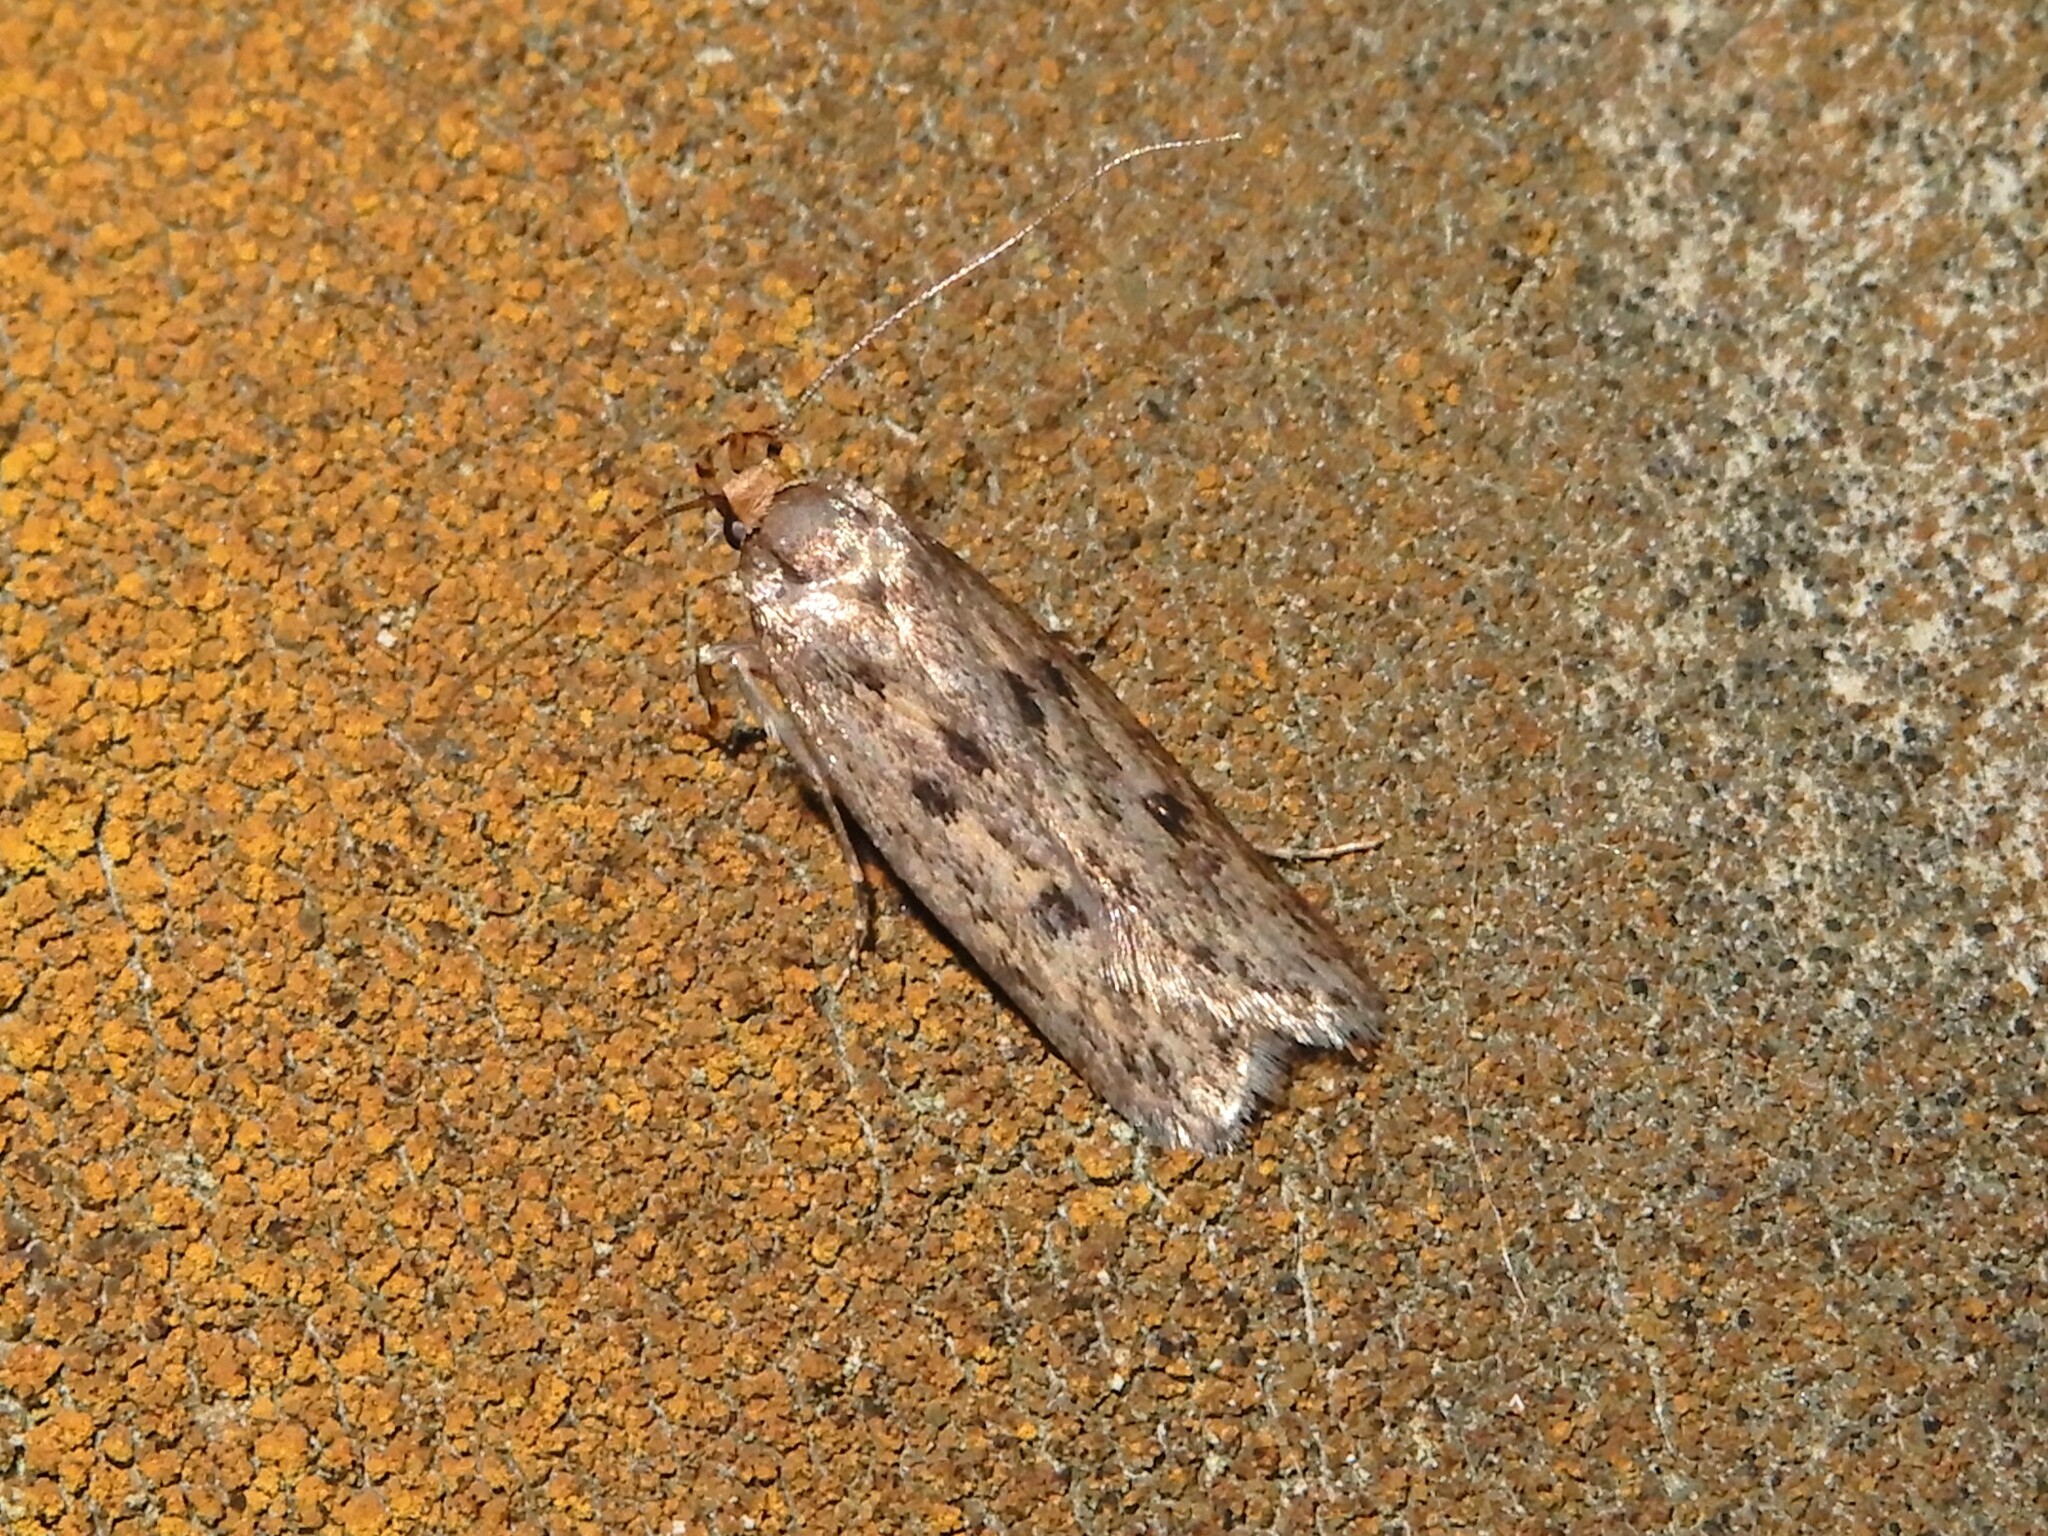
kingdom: Animalia
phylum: Arthropoda
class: Insecta
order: Lepidoptera
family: Oecophoridae
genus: Hofmannophila
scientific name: Hofmannophila pseudospretella
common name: Brown house moth
